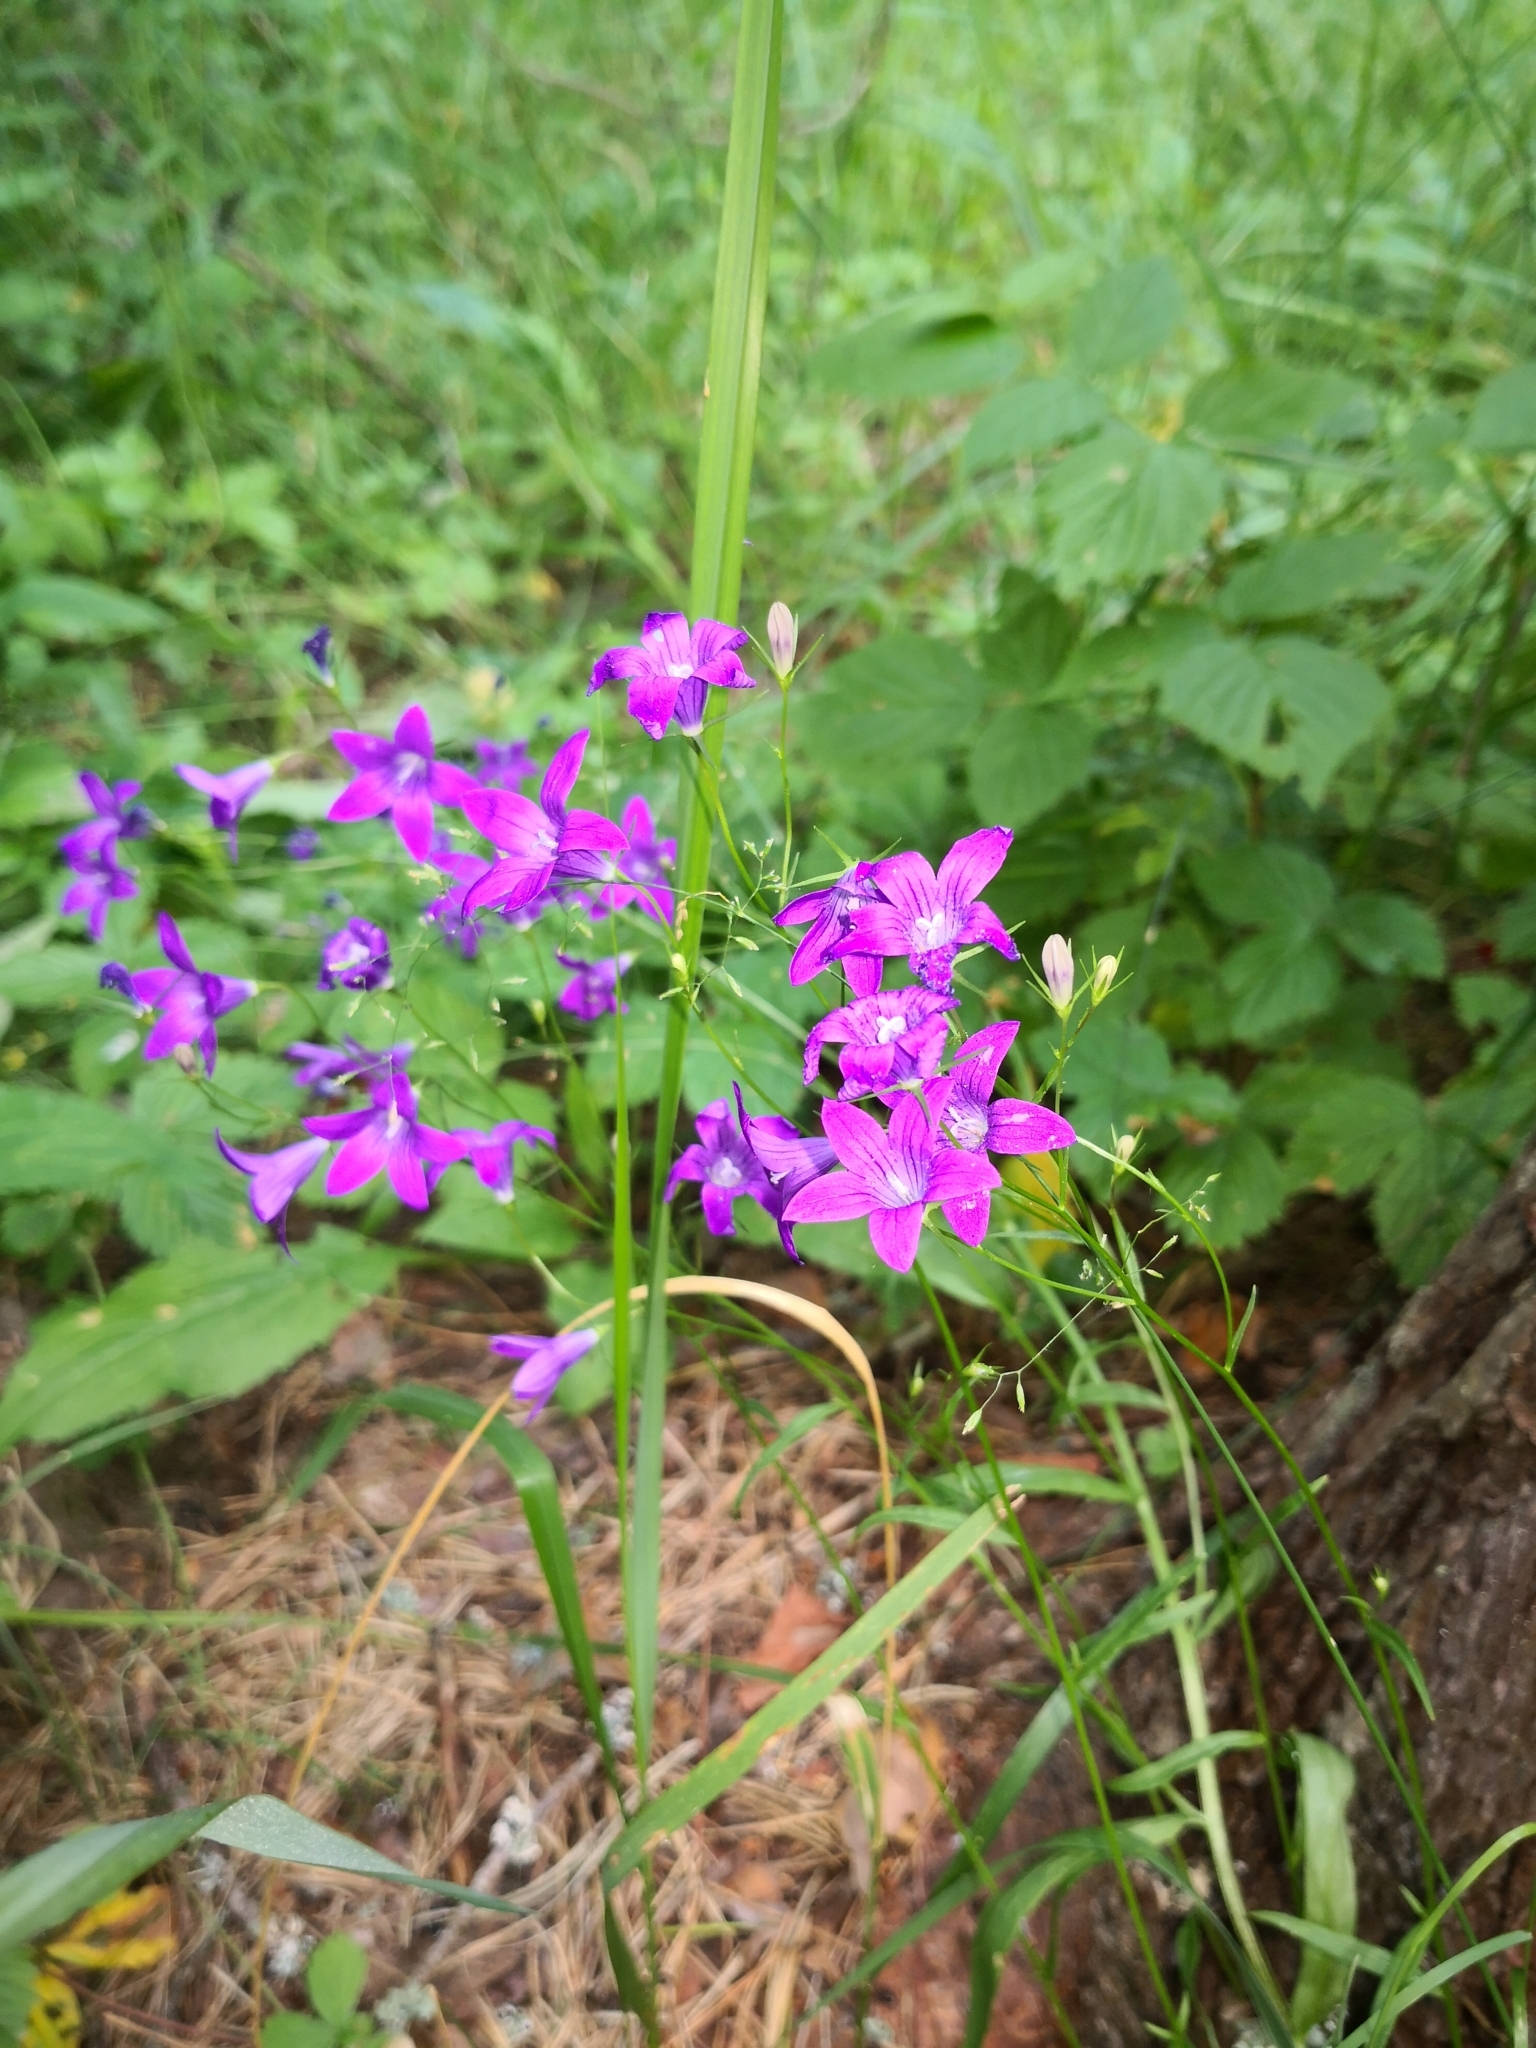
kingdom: Plantae
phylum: Tracheophyta
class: Magnoliopsida
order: Asterales
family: Campanulaceae
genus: Campanula
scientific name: Campanula patula
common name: Spreading bellflower
